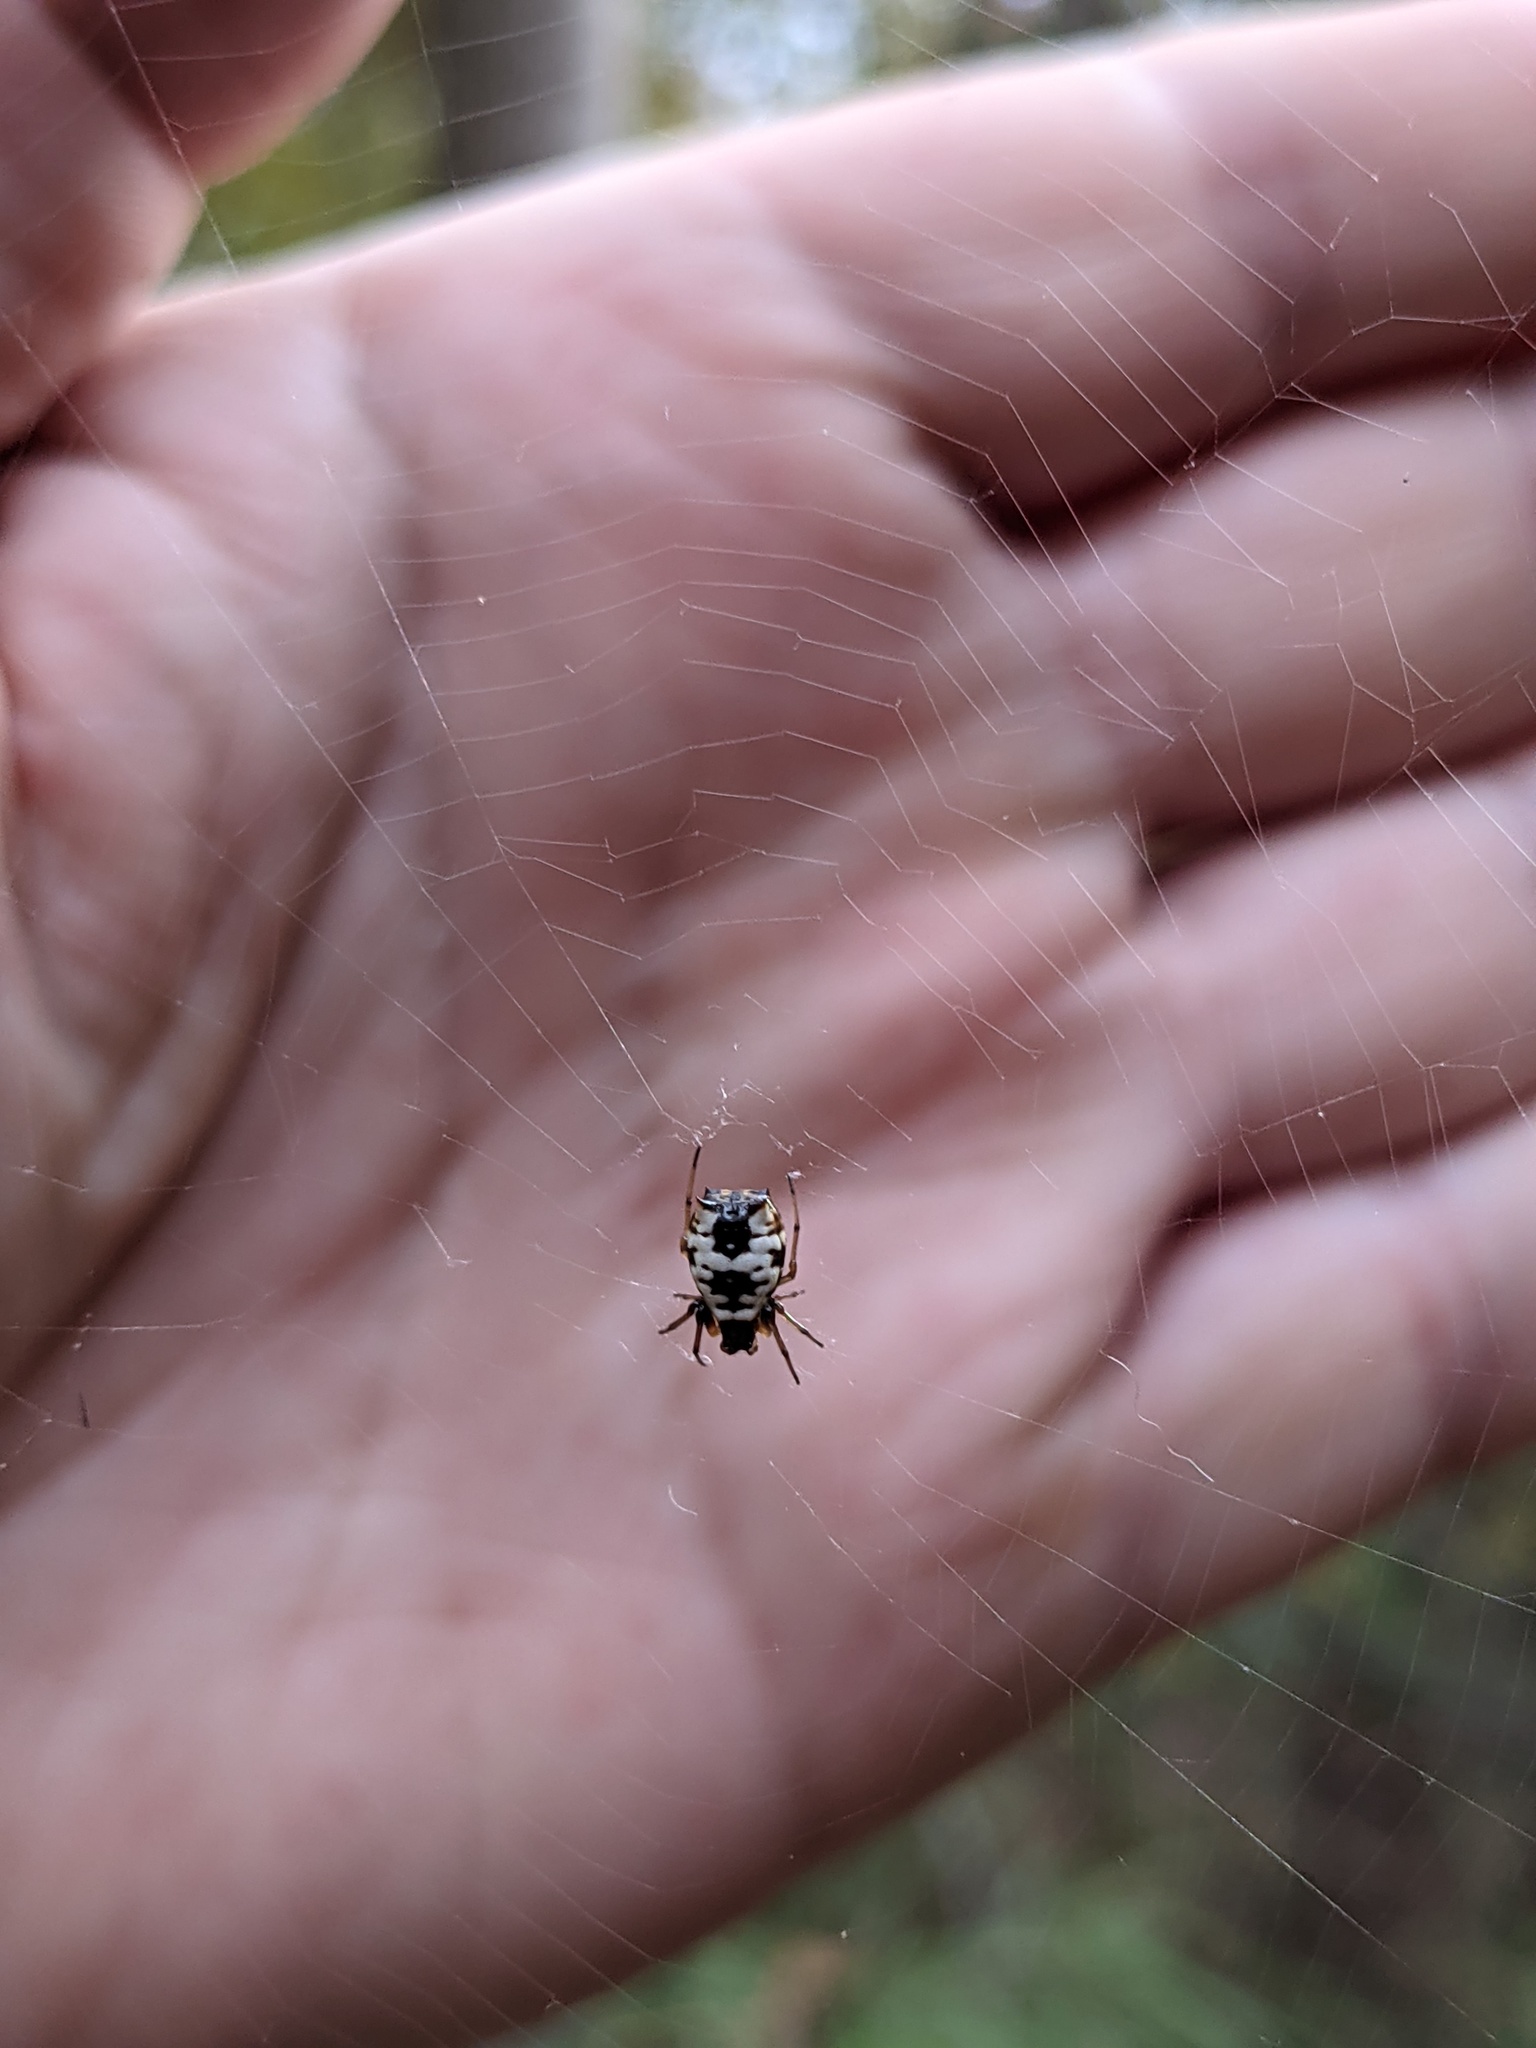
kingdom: Animalia
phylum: Arthropoda
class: Arachnida
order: Araneae
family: Araneidae
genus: Micrathena
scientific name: Micrathena mitrata
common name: Orb weavers
